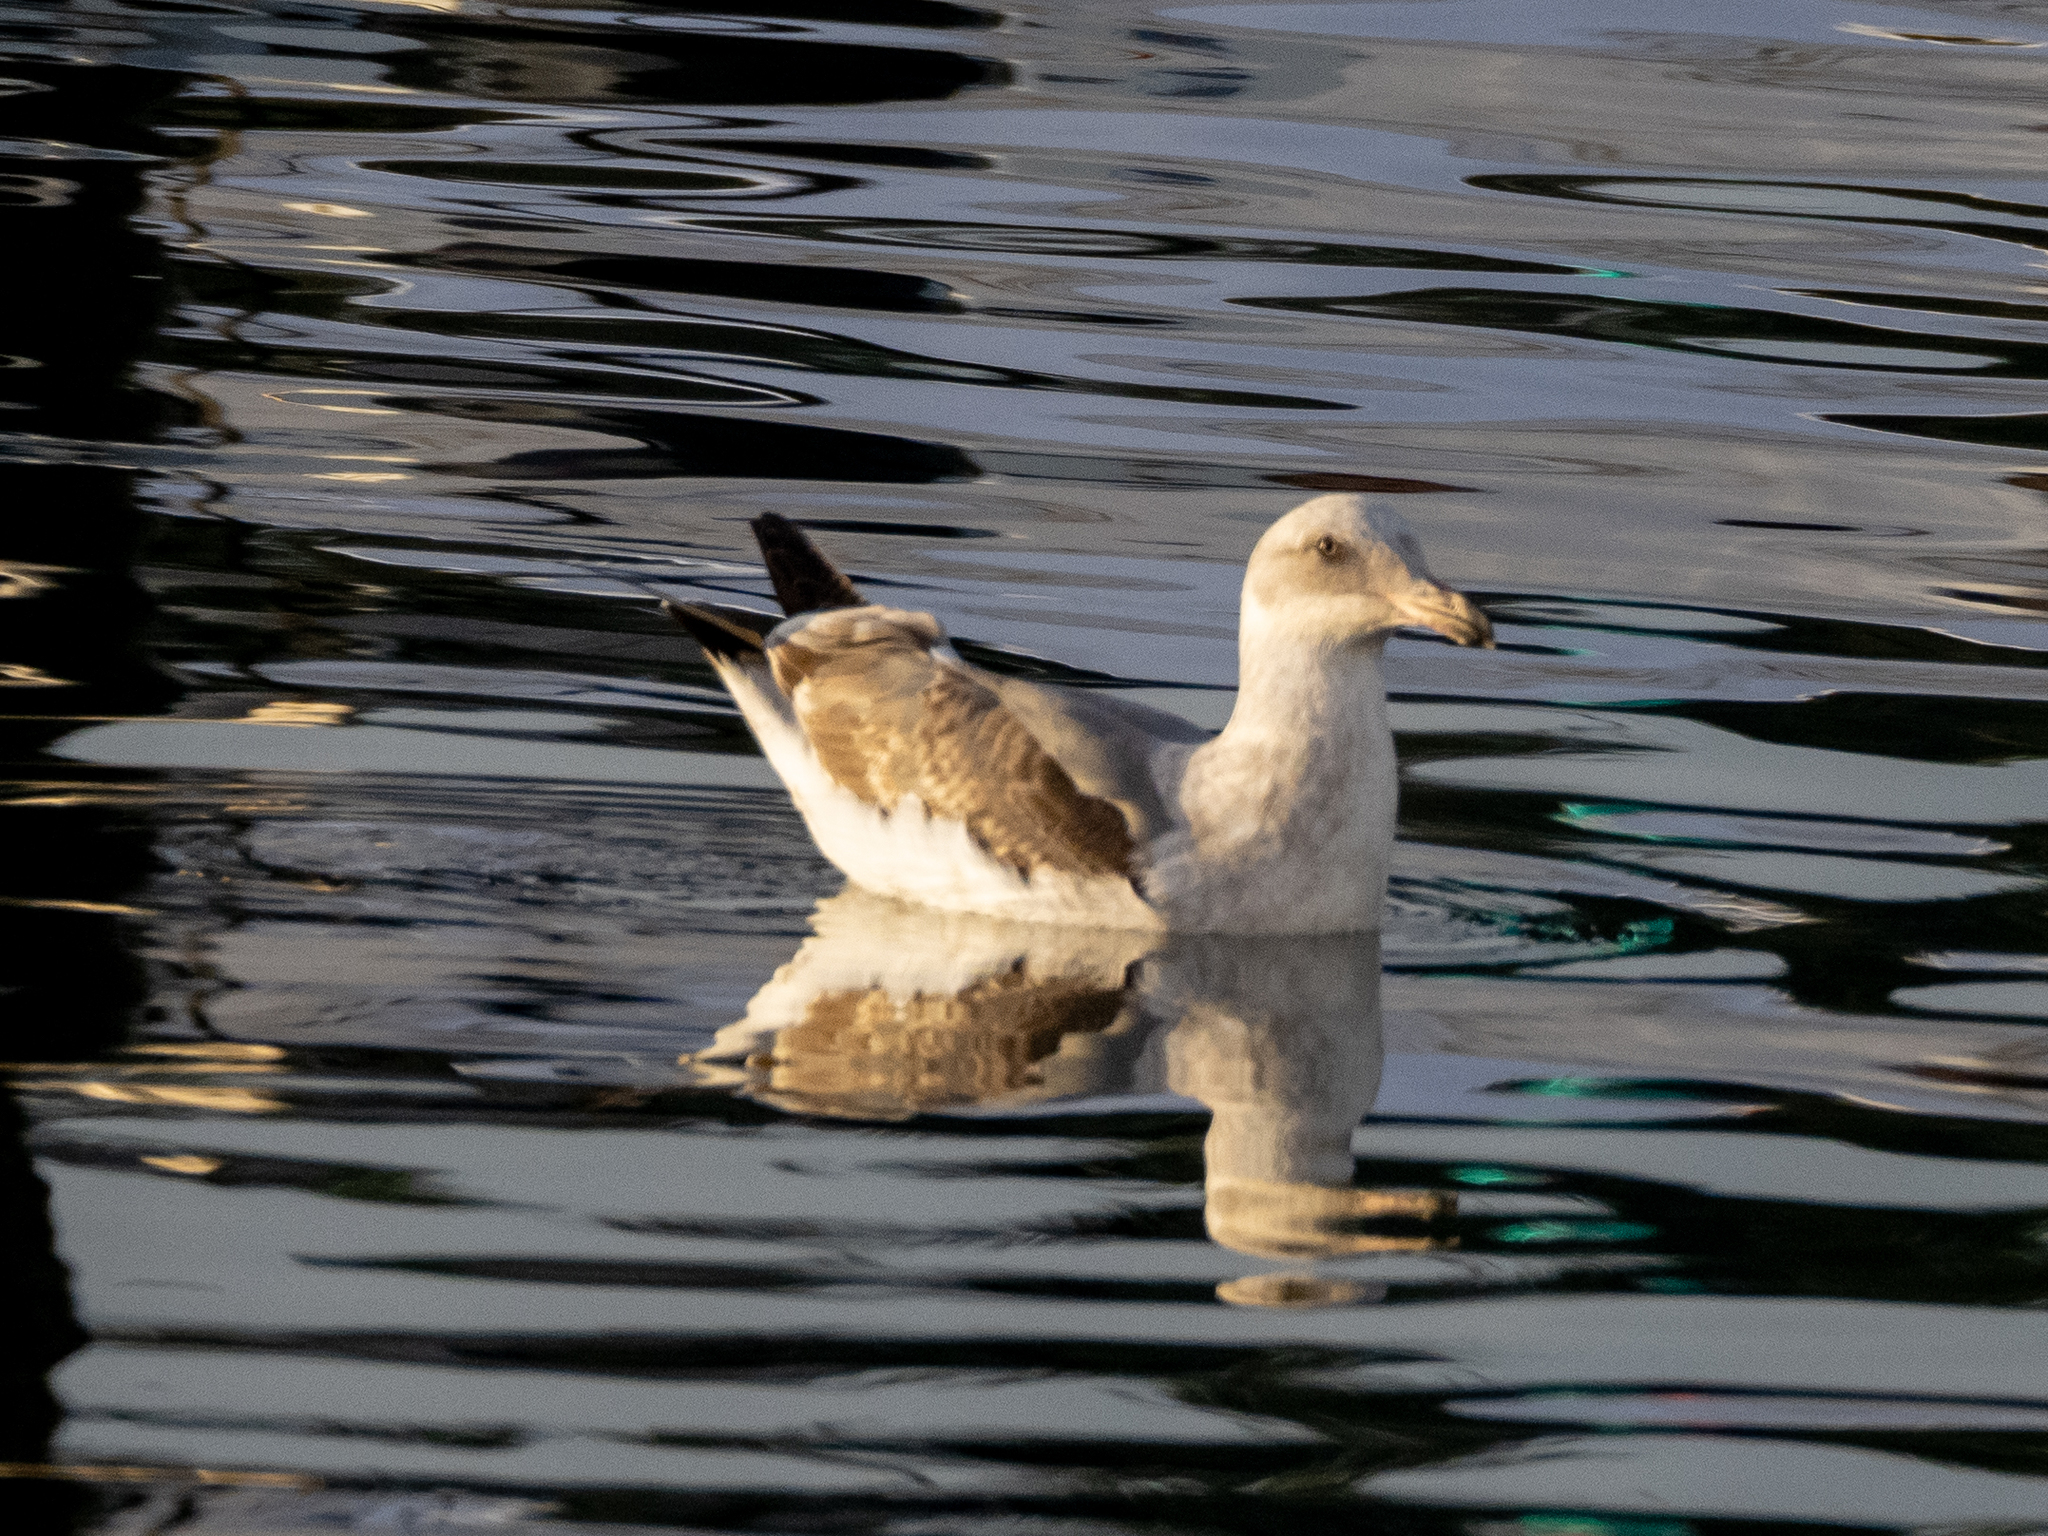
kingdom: Animalia
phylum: Chordata
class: Aves
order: Charadriiformes
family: Laridae
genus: Larus
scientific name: Larus occidentalis
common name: Western gull
